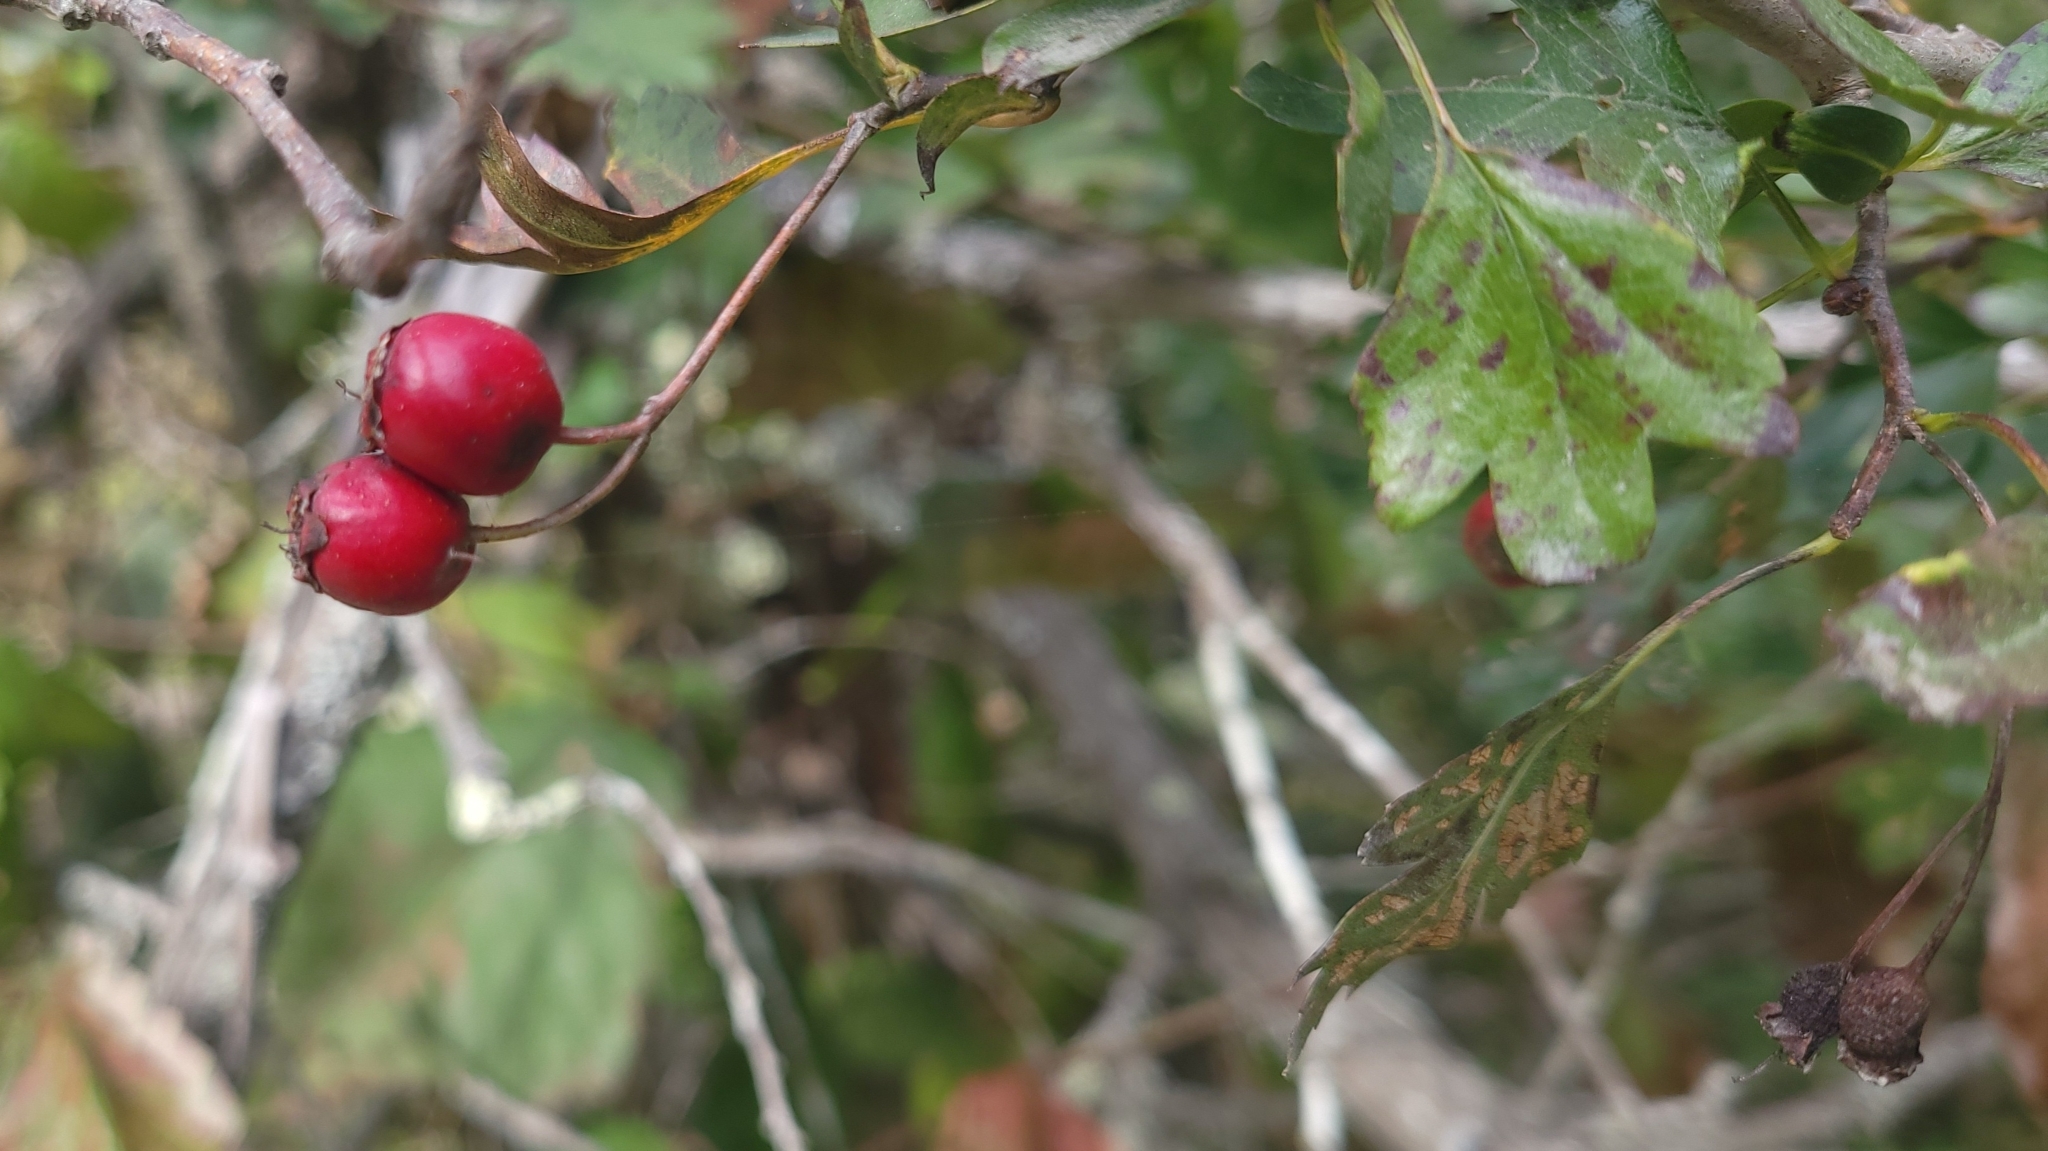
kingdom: Plantae
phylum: Tracheophyta
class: Magnoliopsida
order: Rosales
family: Rosaceae
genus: Crataegus
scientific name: Crataegus monogyna
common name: Hawthorn
